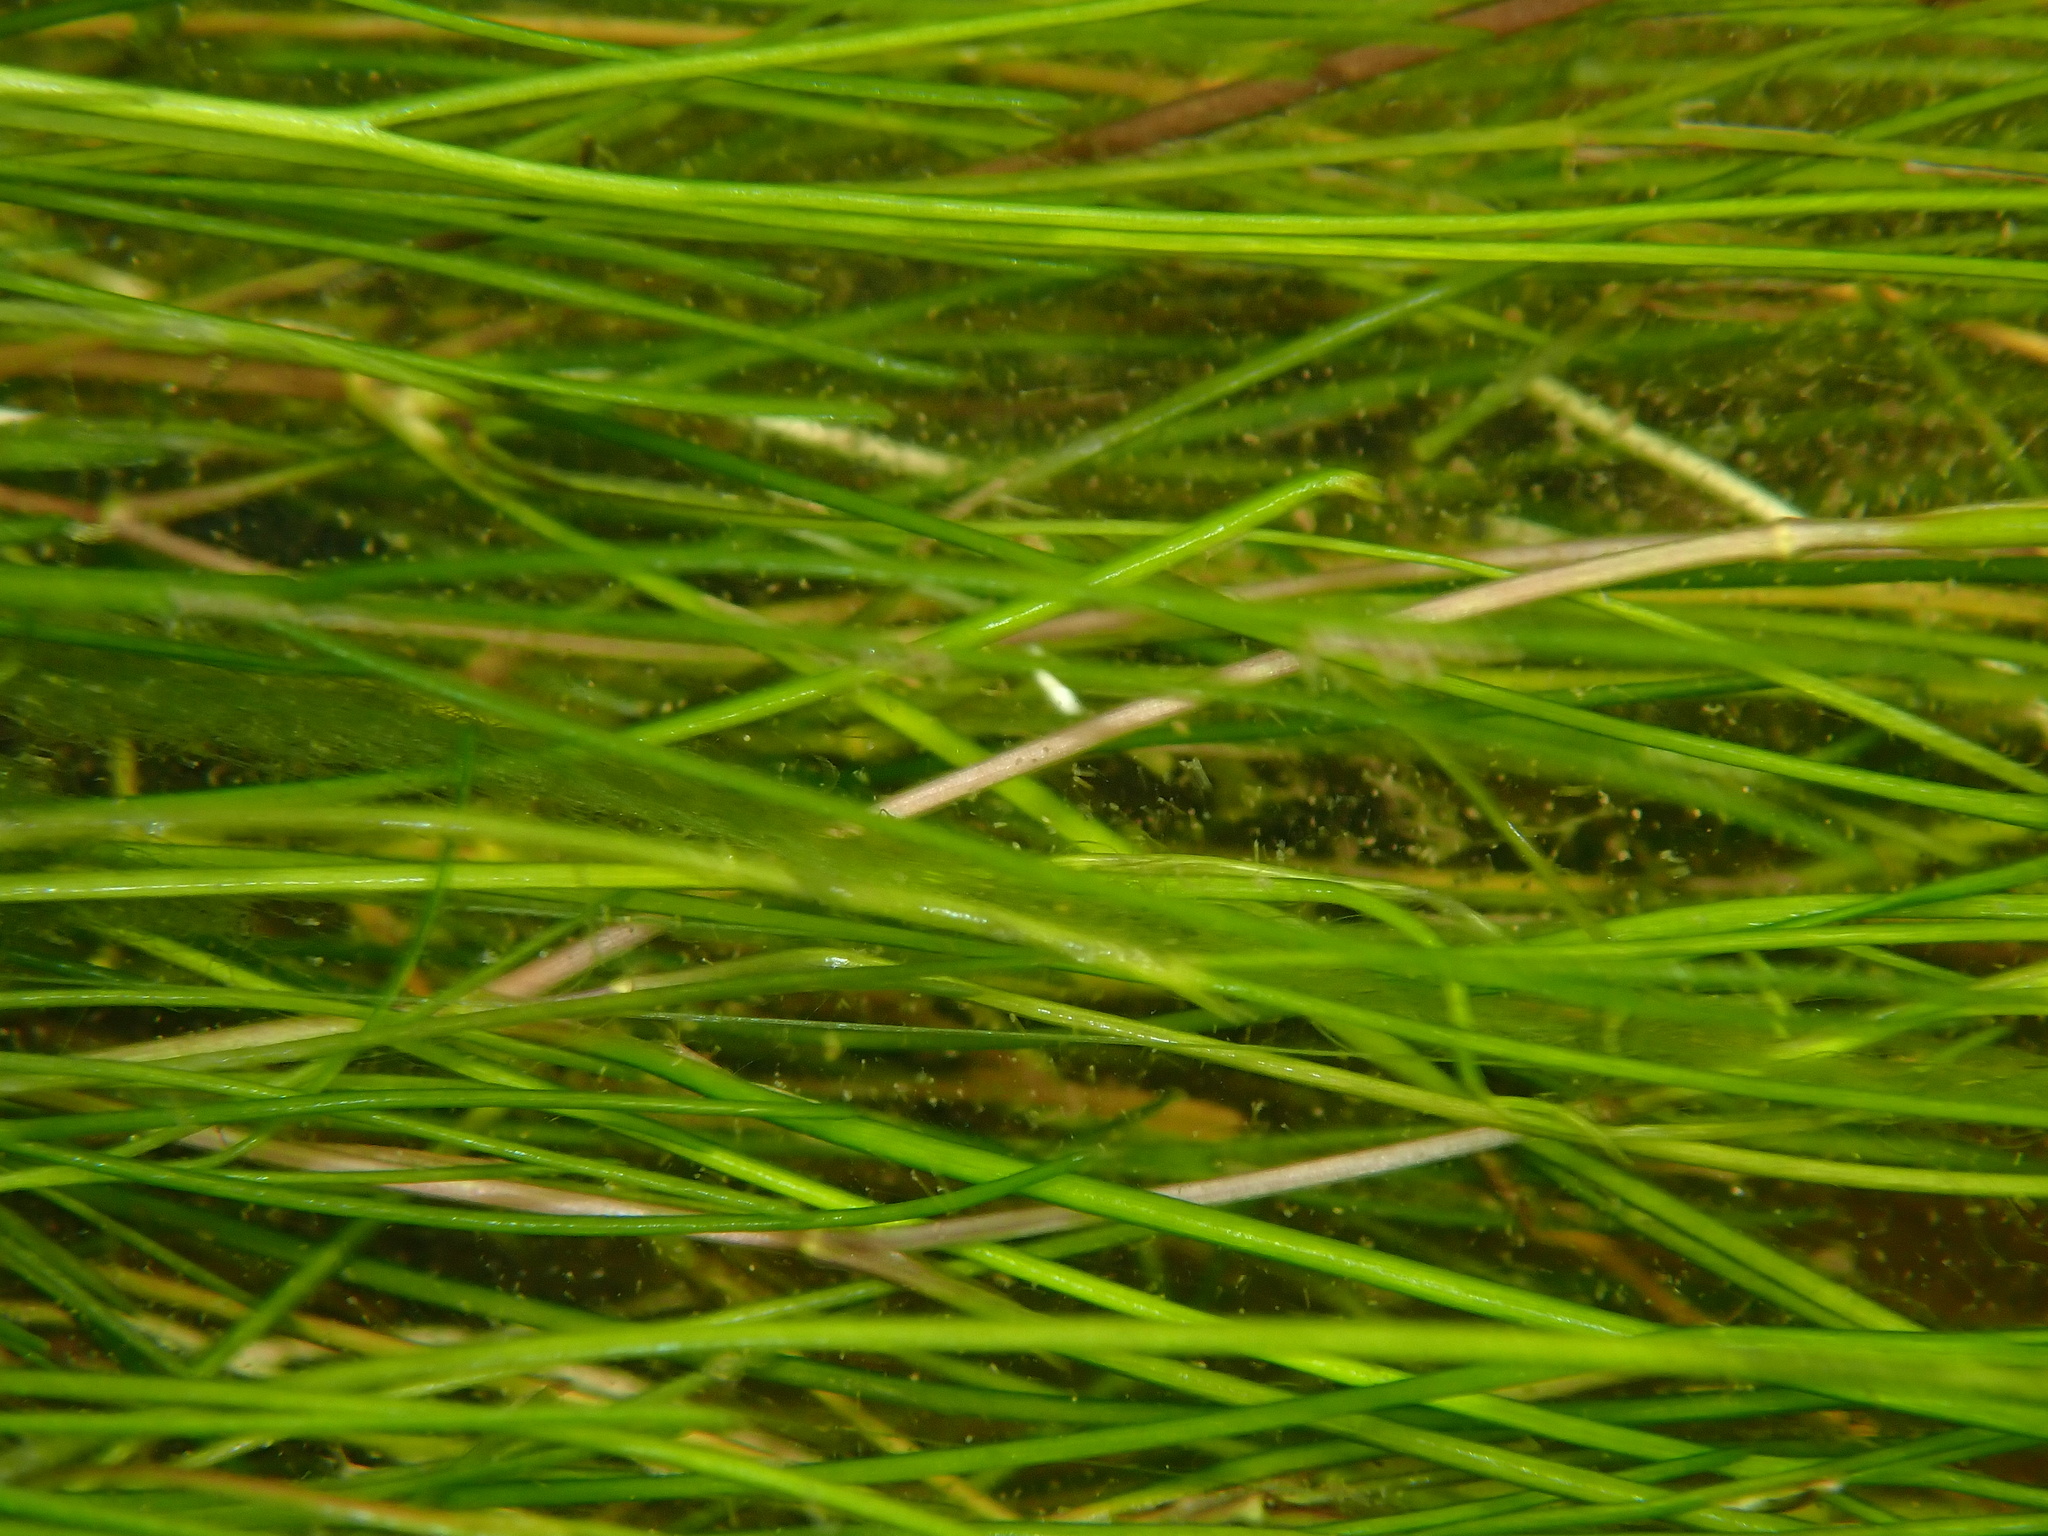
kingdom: Plantae
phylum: Tracheophyta
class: Liliopsida
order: Alismatales
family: Potamogetonaceae
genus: Stuckenia
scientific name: Stuckenia pectinata
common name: Sago pondweed
